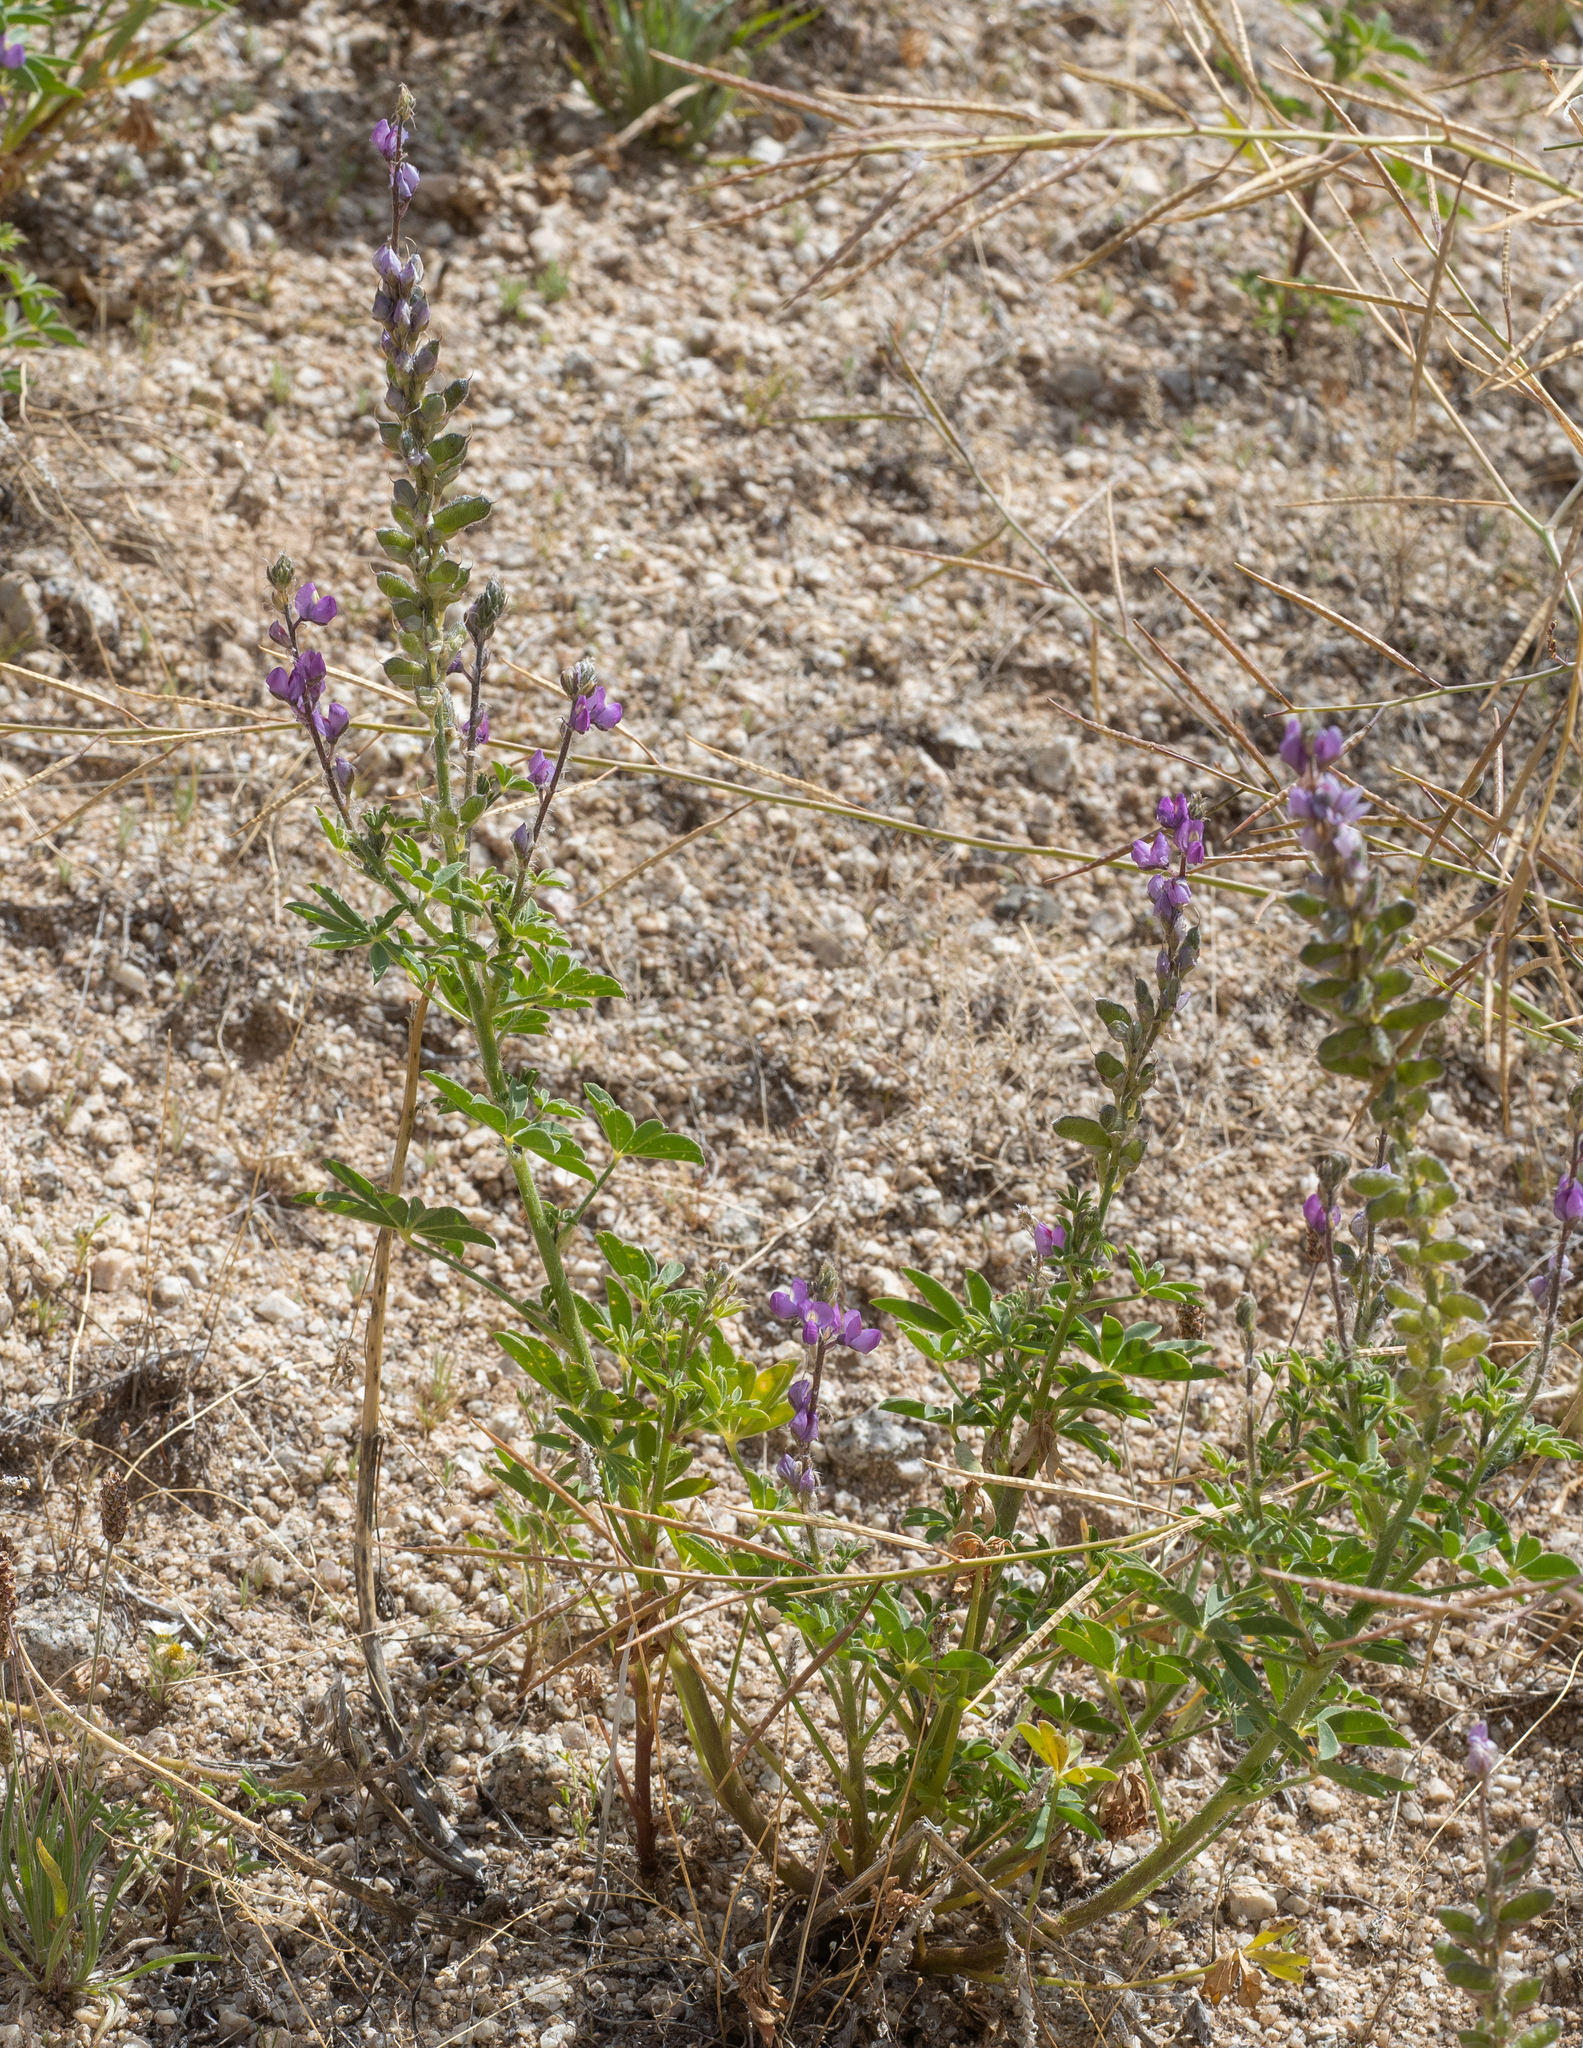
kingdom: Plantae
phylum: Tracheophyta
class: Magnoliopsida
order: Fabales
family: Fabaceae
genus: Lupinus
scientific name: Lupinus arizonicus
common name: Arizona lupine
